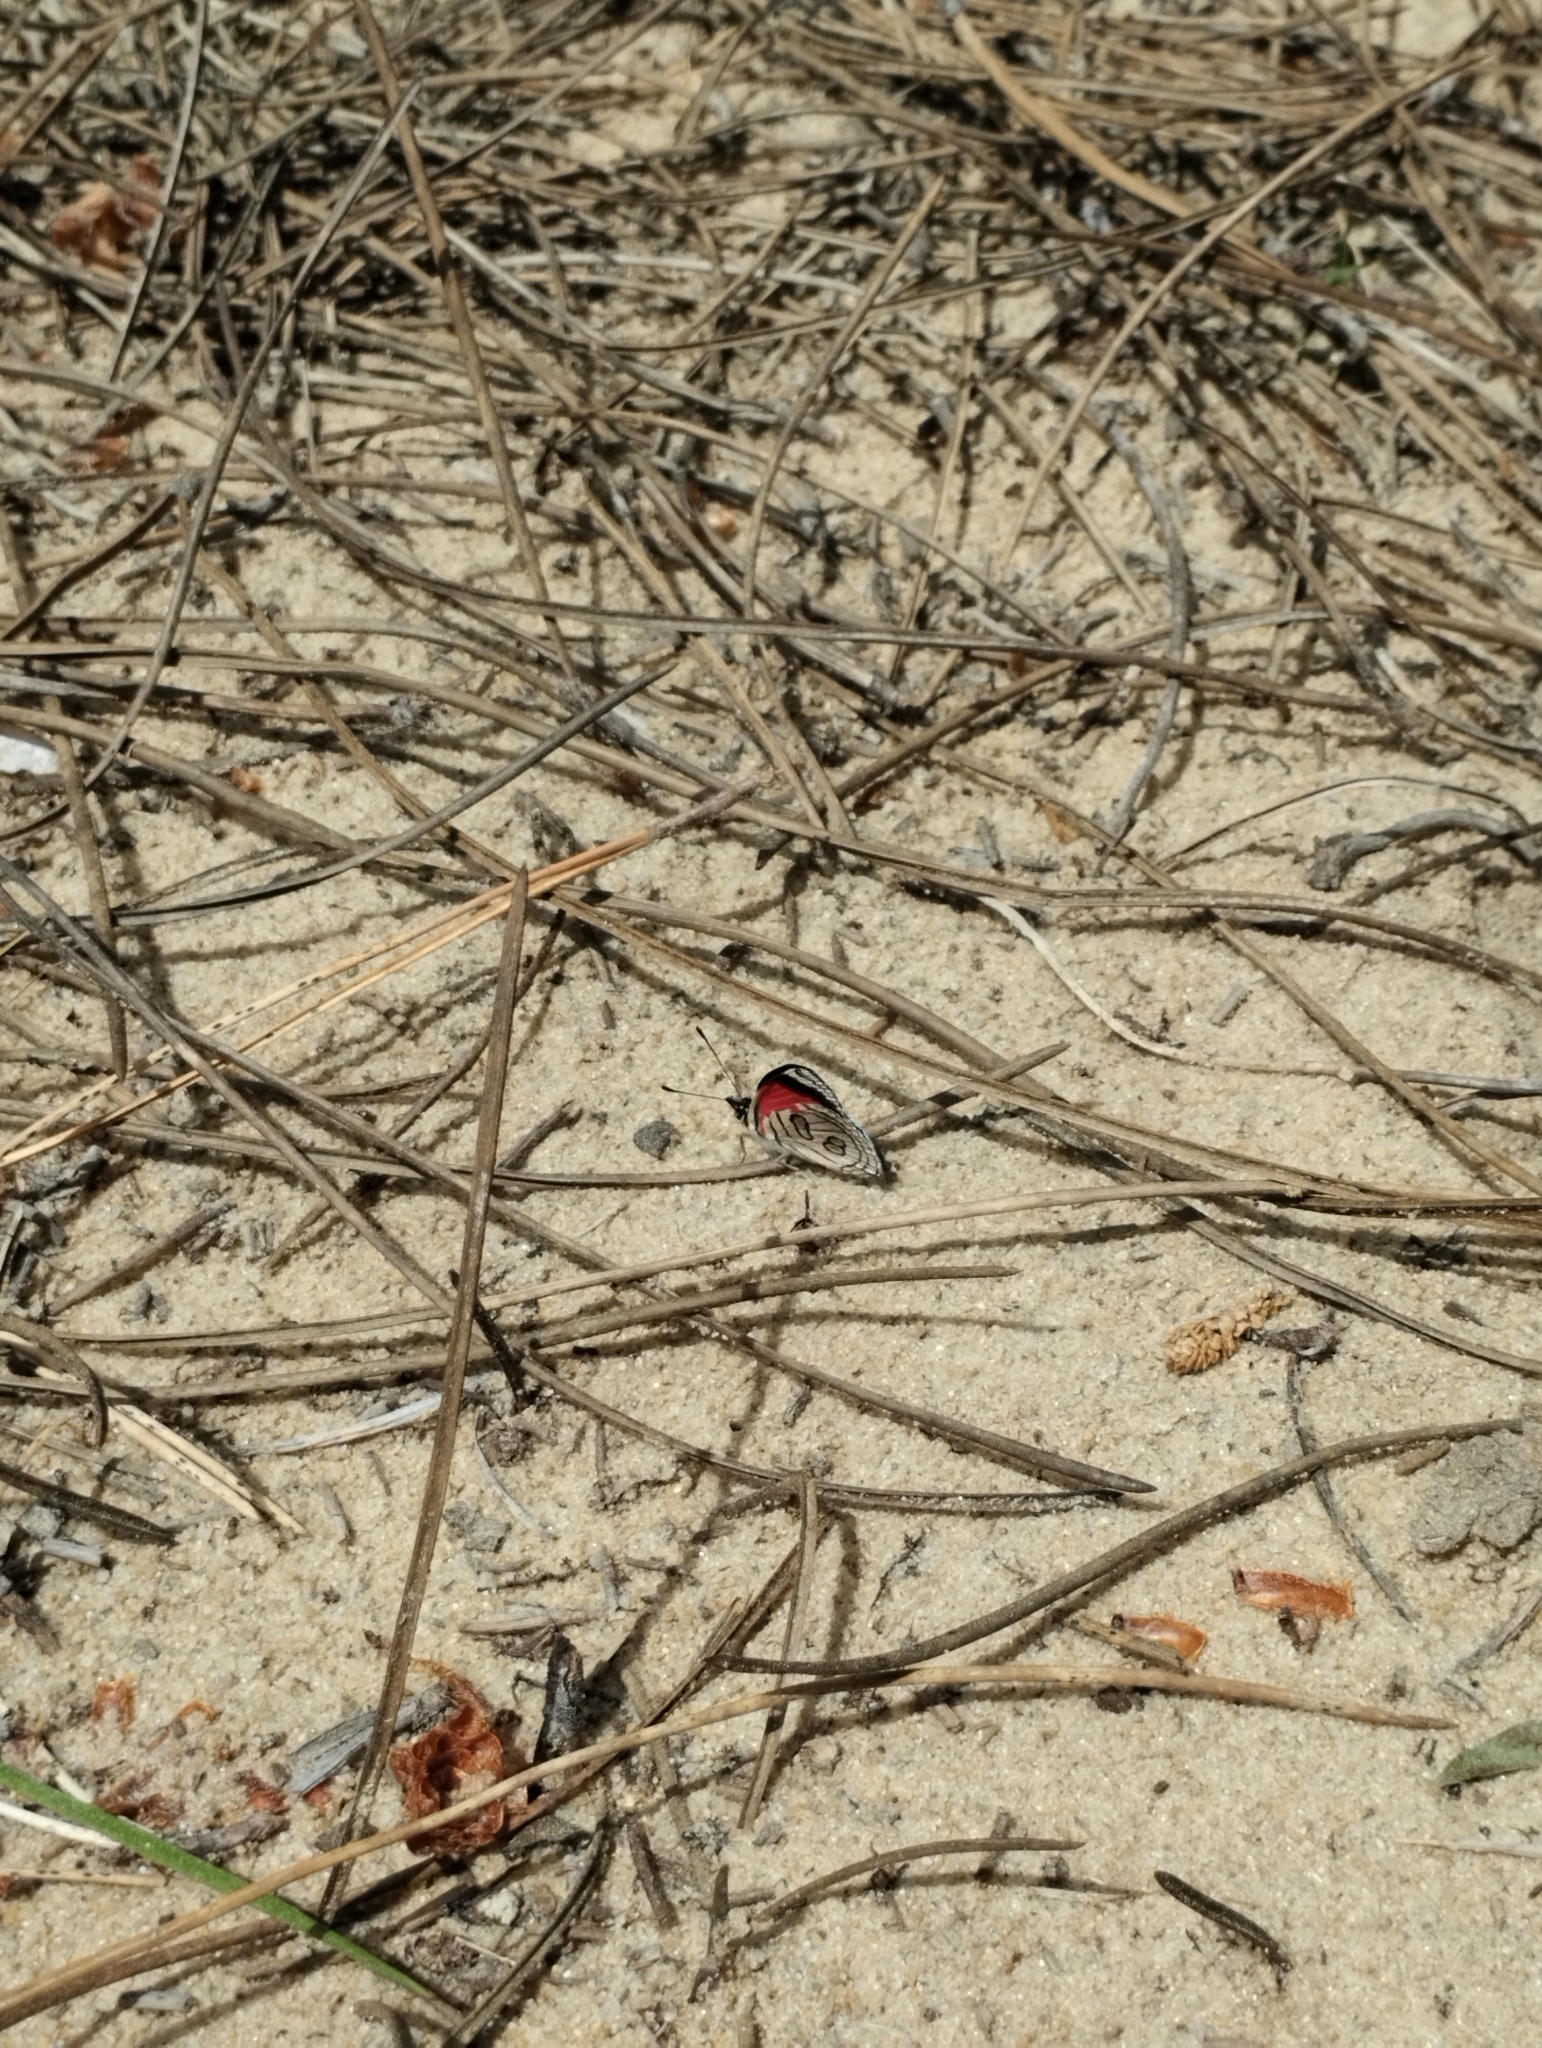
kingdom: Animalia
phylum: Arthropoda
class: Insecta
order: Lepidoptera
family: Nymphalidae
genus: Diaethria
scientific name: Diaethria candrena
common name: Number eighty
